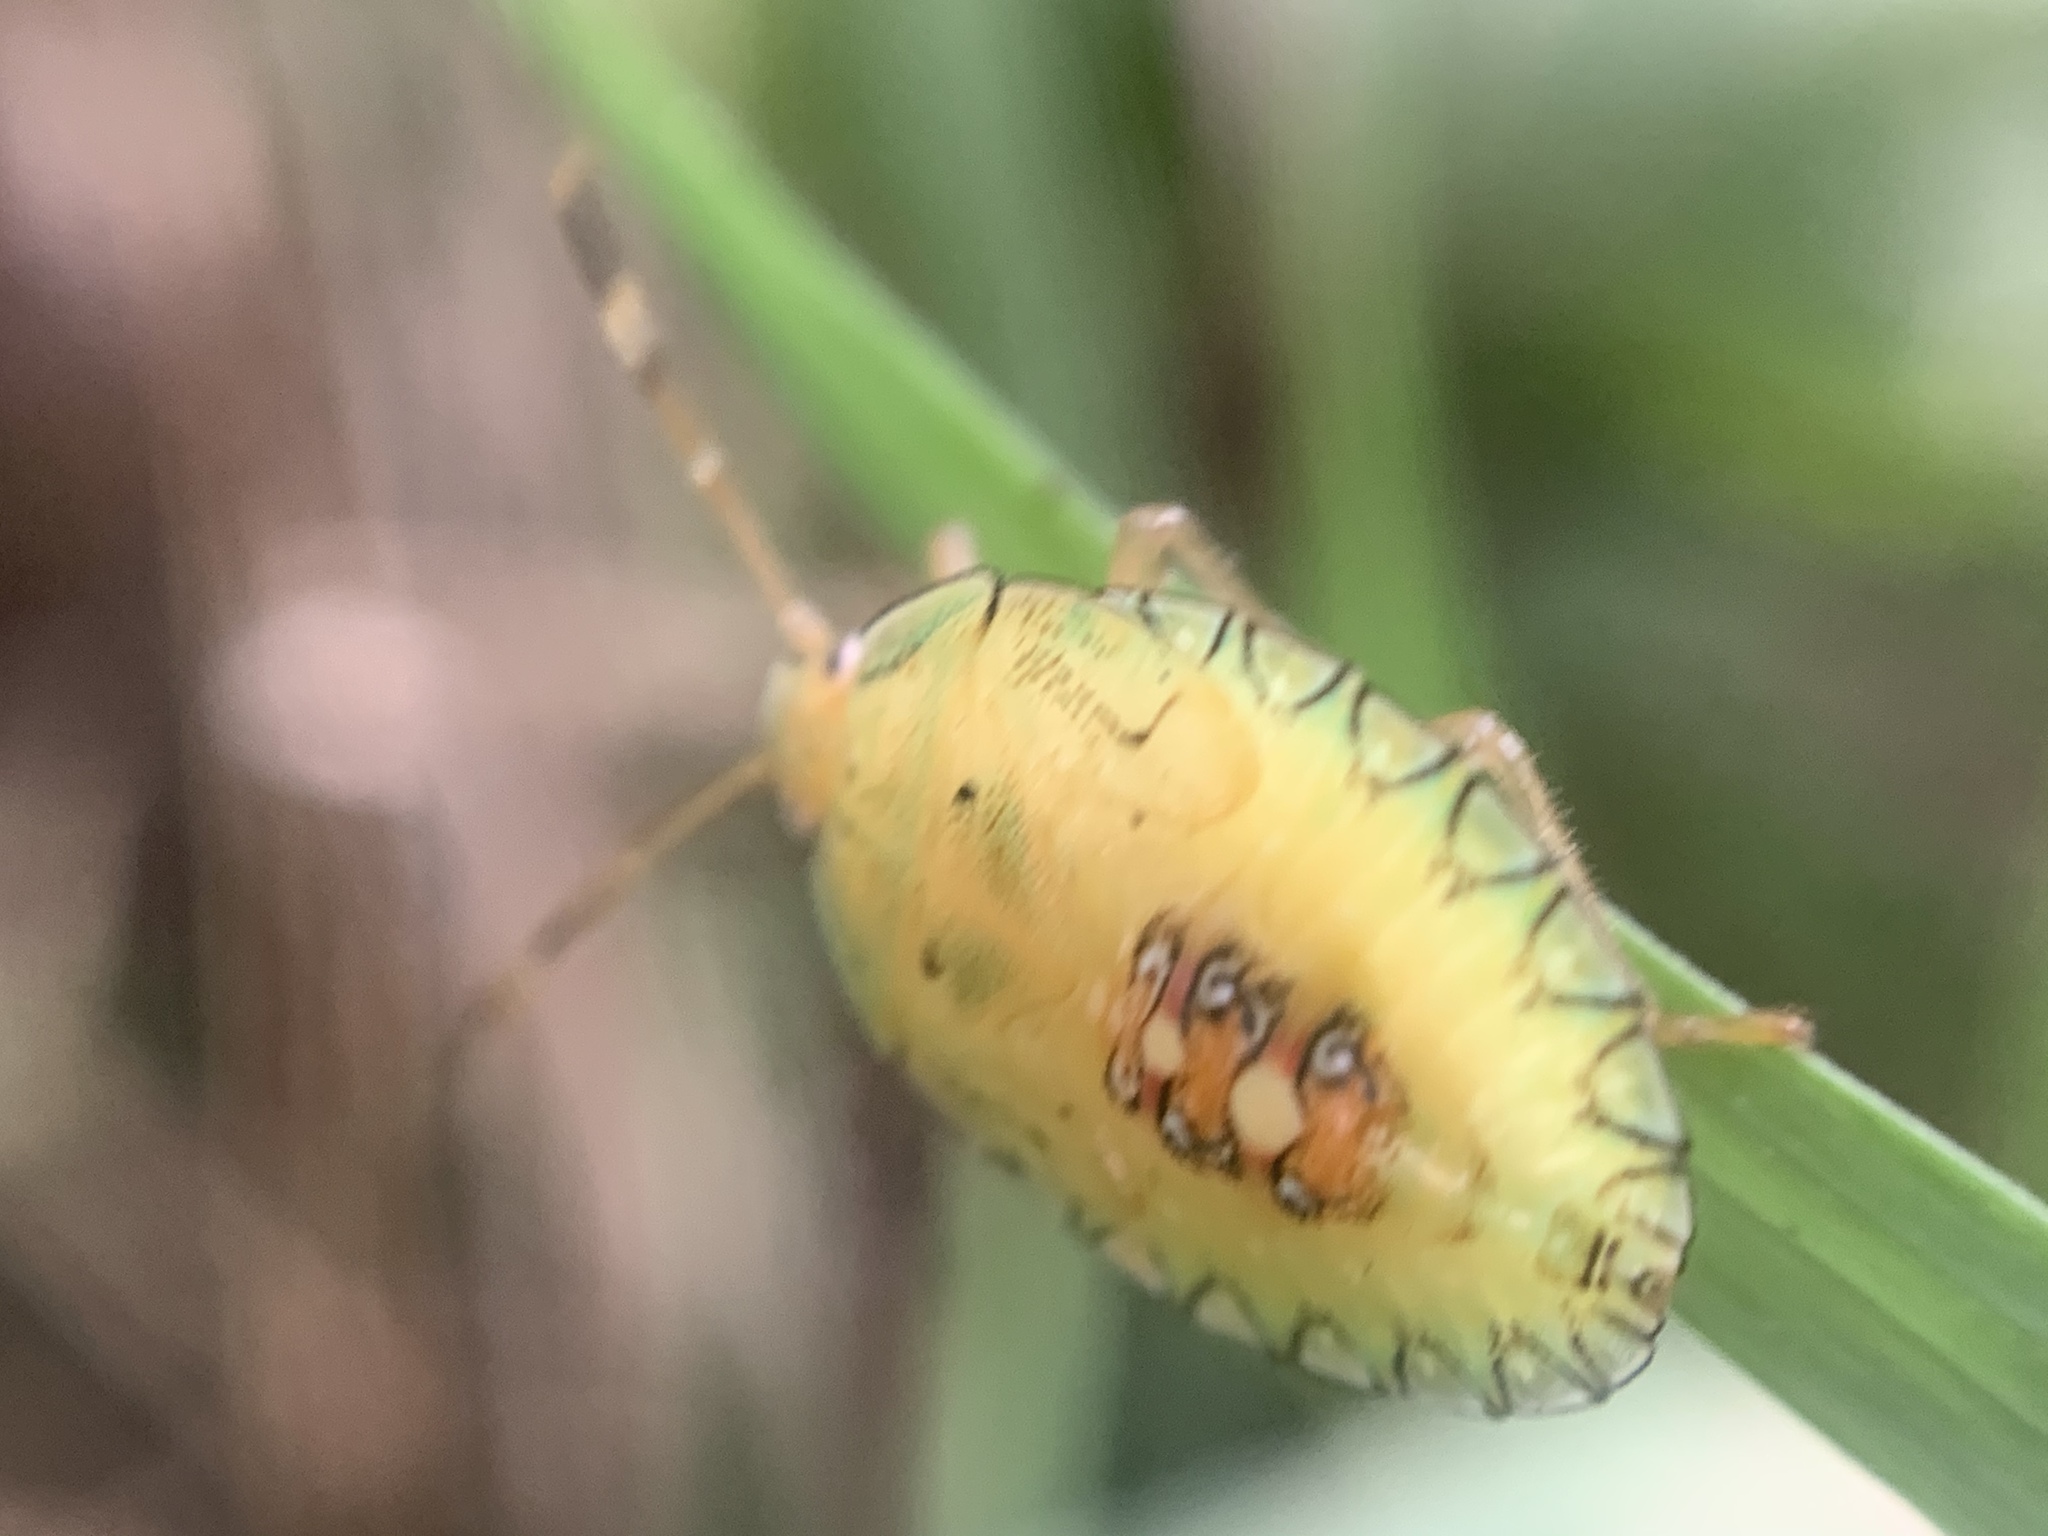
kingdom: Animalia
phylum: Arthropoda
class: Insecta
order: Hemiptera
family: Pentatomidae
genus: Edessa
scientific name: Edessa meditabunda
